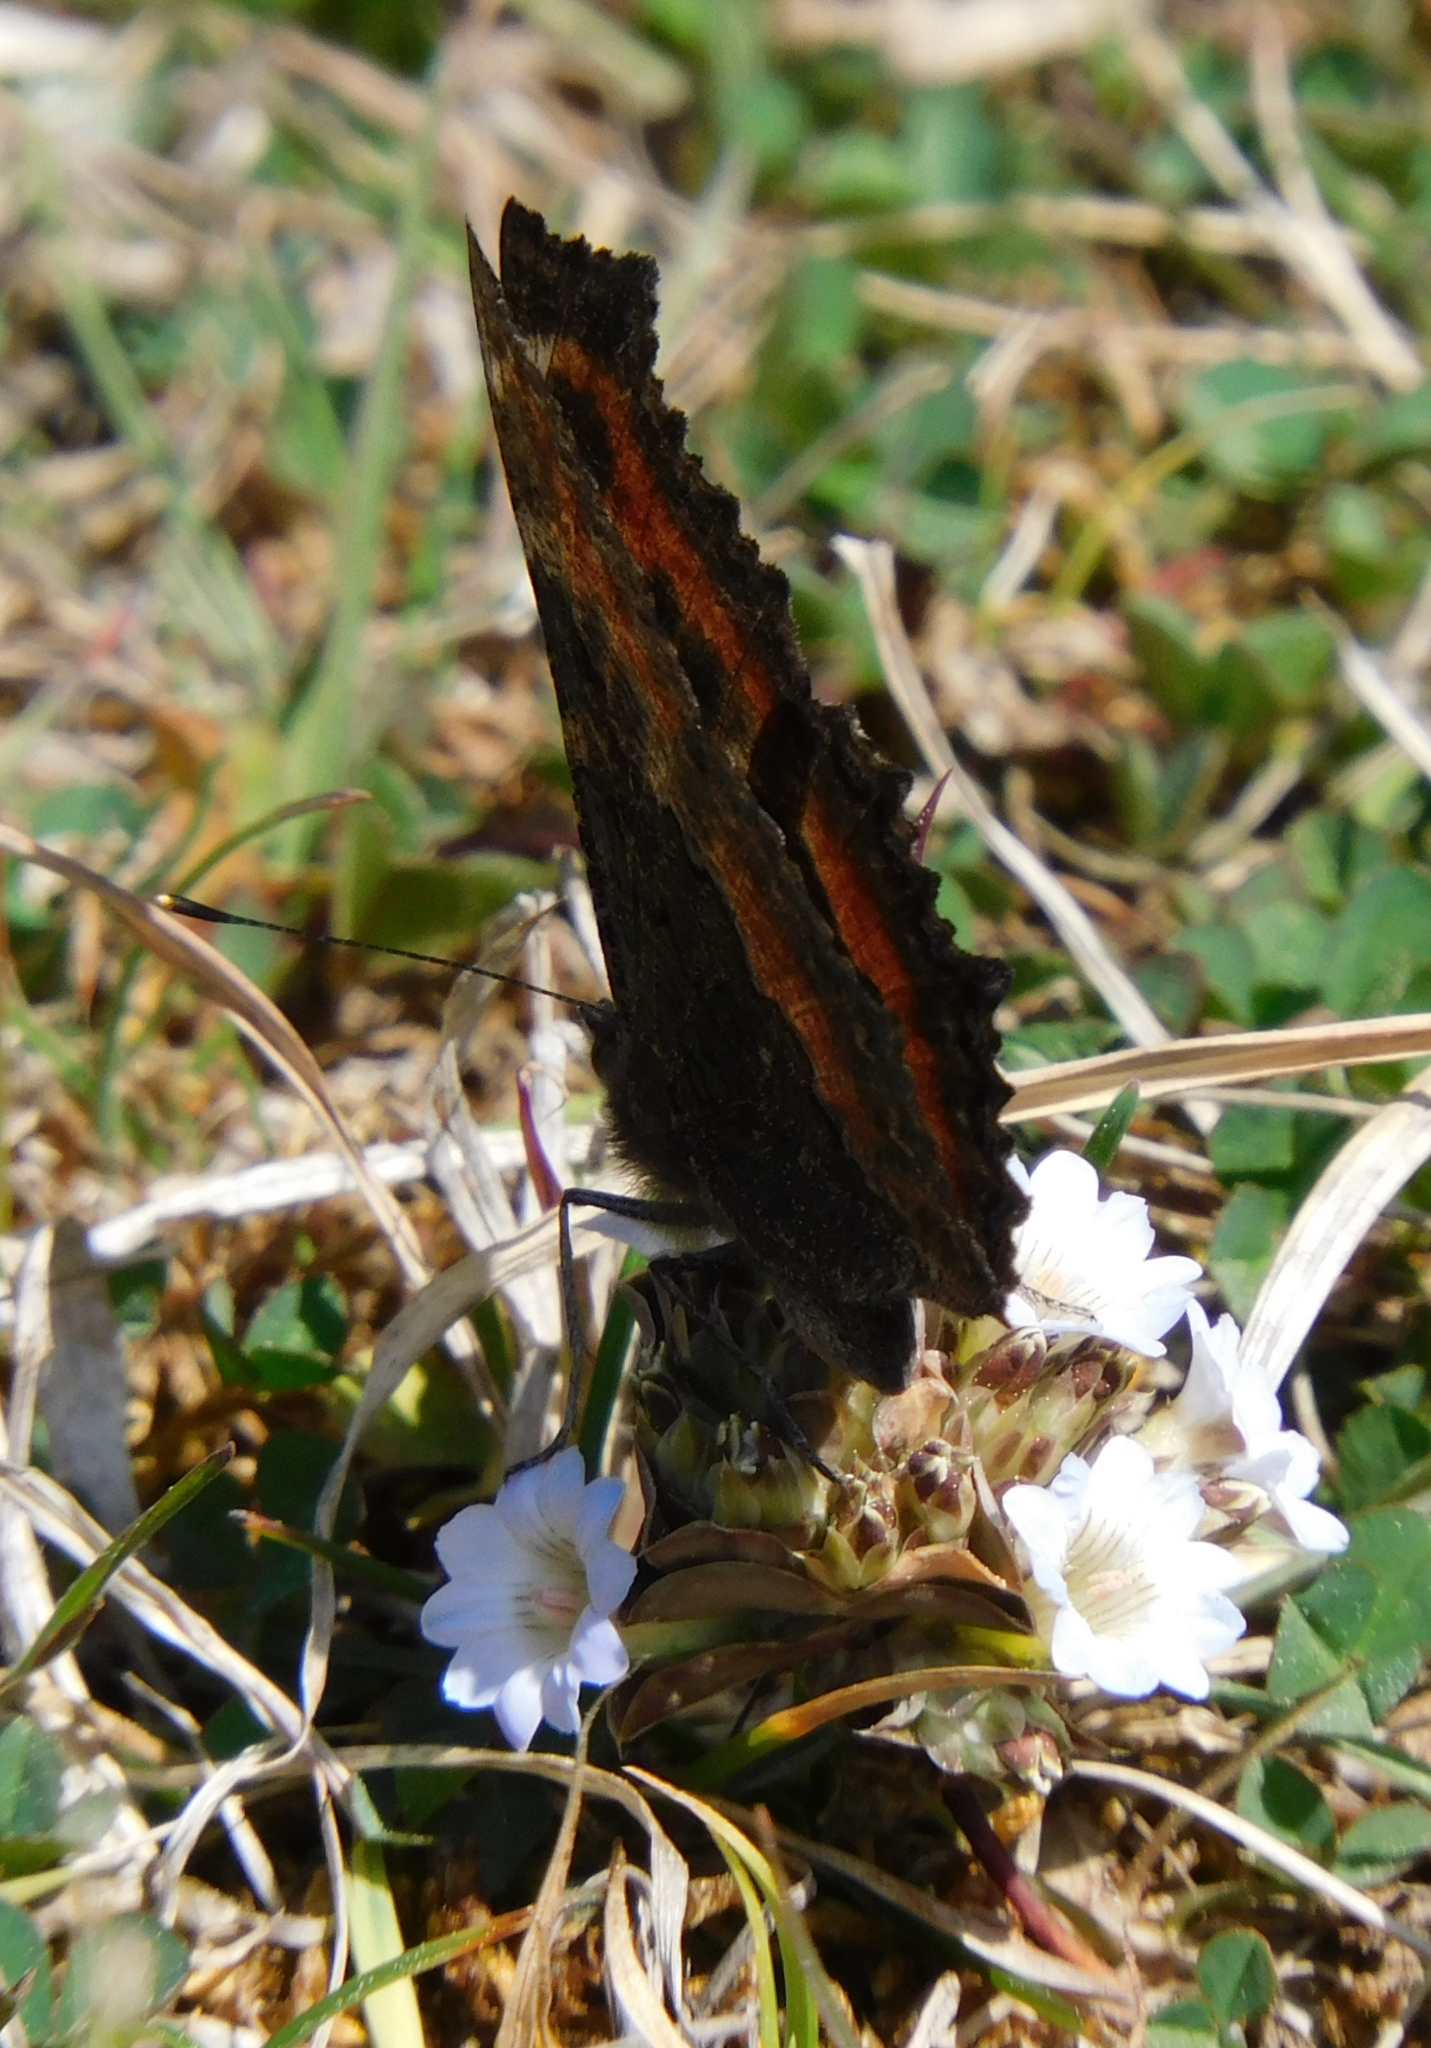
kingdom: Animalia
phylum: Arthropoda
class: Insecta
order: Lepidoptera
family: Nymphalidae
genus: Aglais
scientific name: Aglais caschmirensis
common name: Indian tortoiseshell
